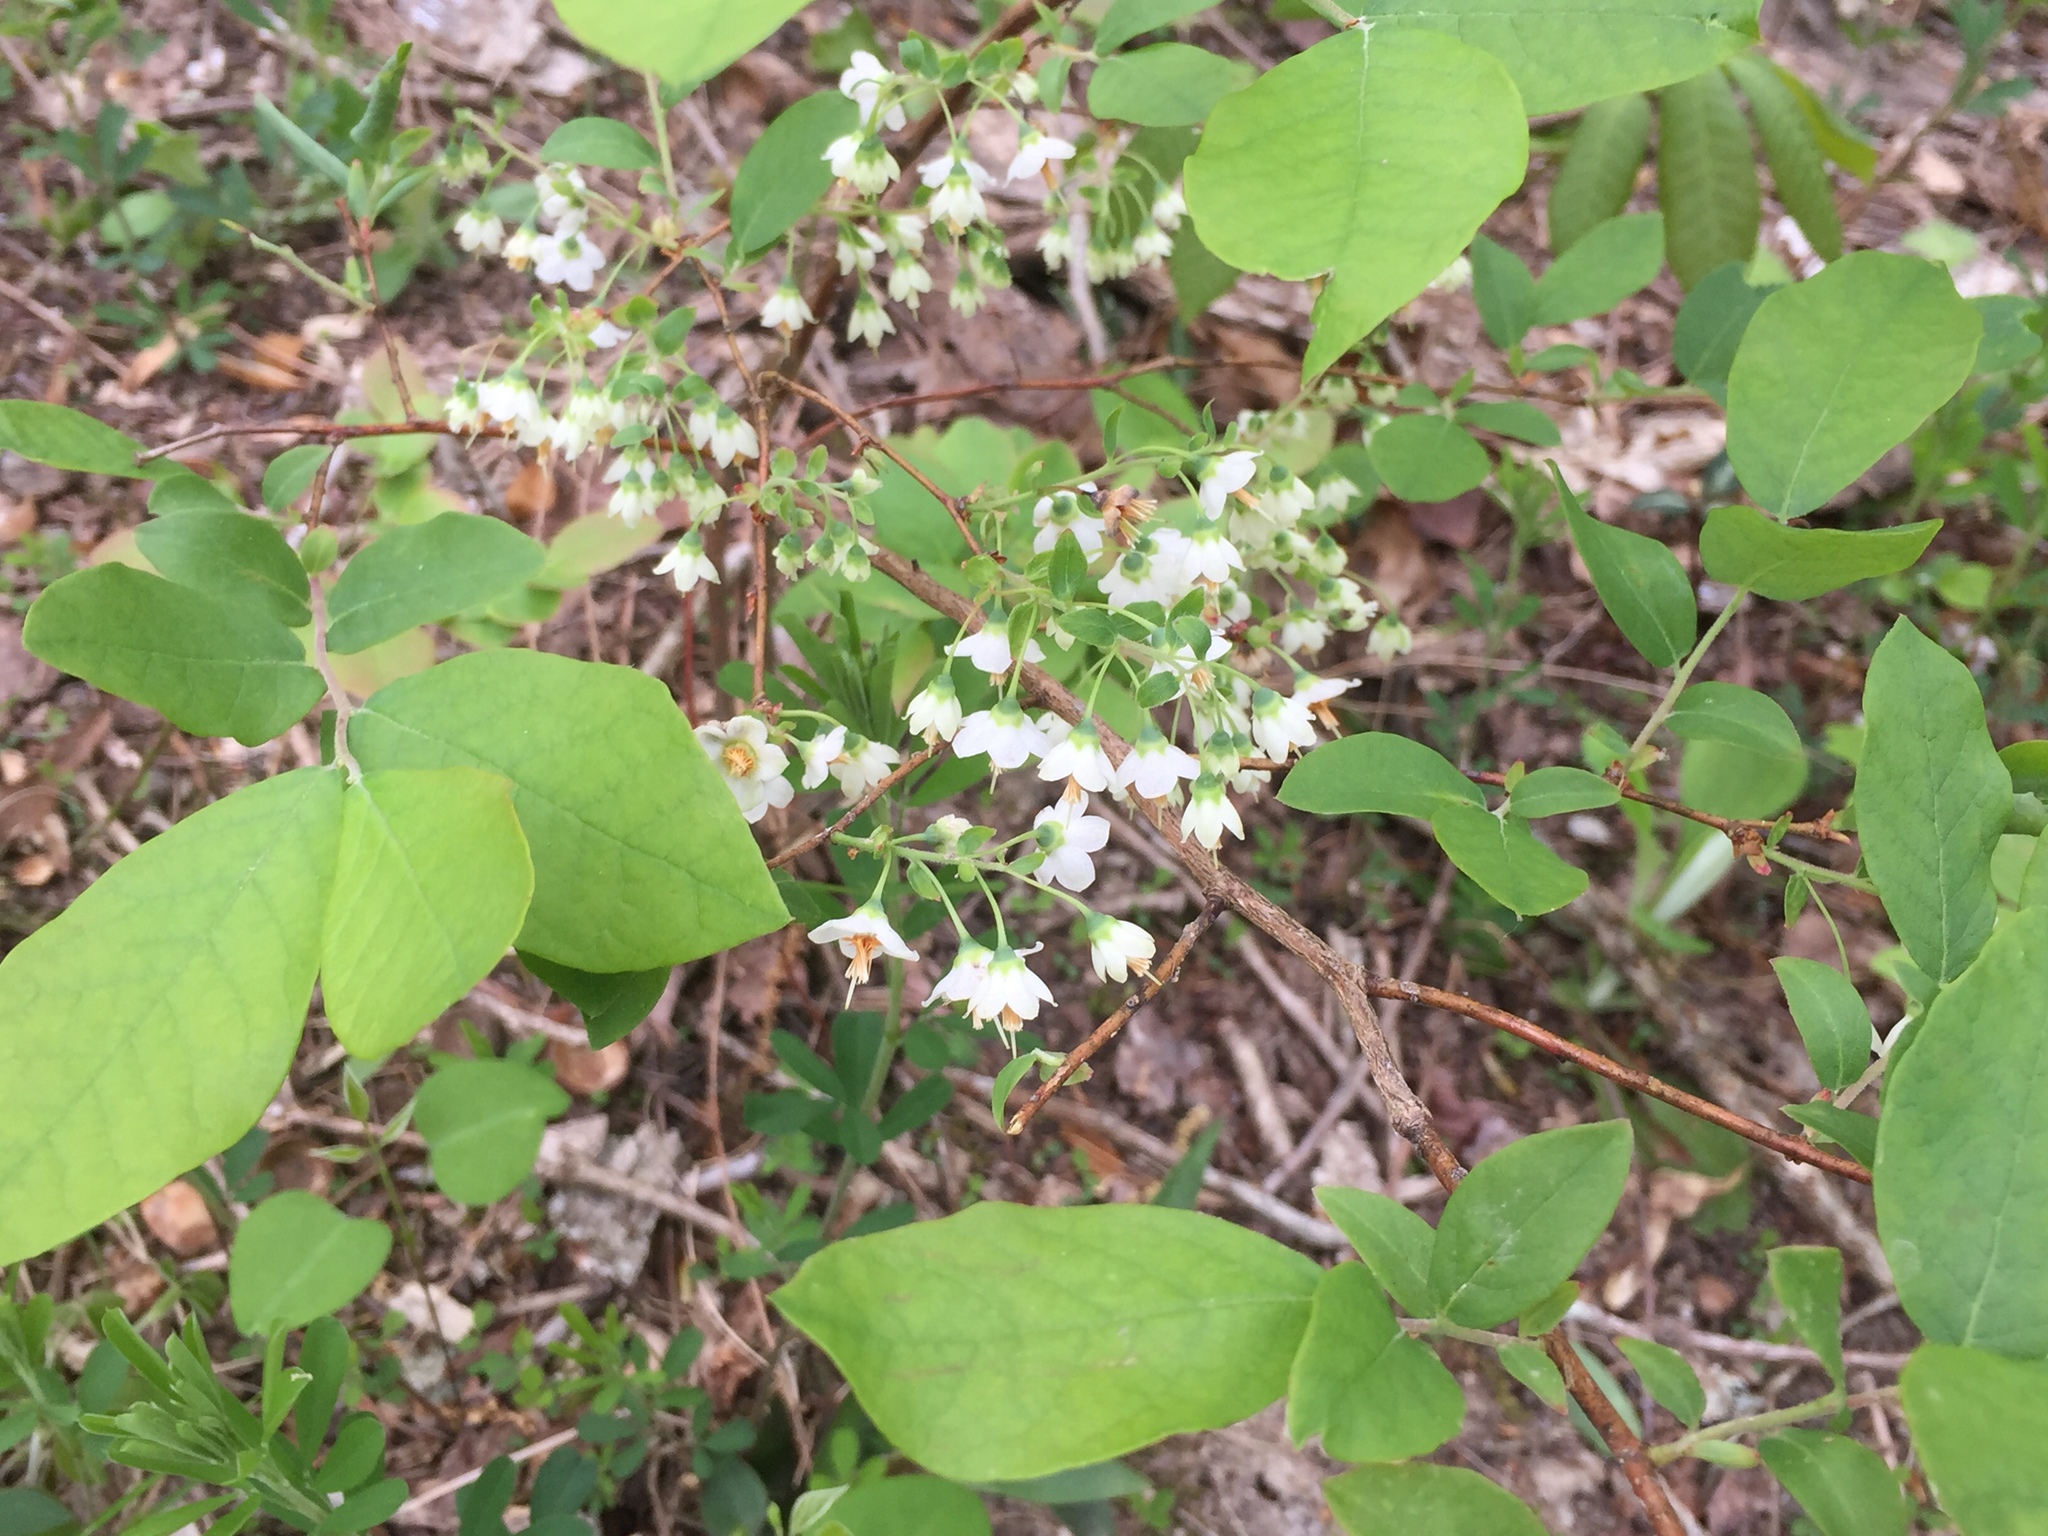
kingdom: Plantae
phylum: Tracheophyta
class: Magnoliopsida
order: Ericales
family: Ericaceae
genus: Vaccinium
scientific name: Vaccinium stamineum
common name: Deerberry
